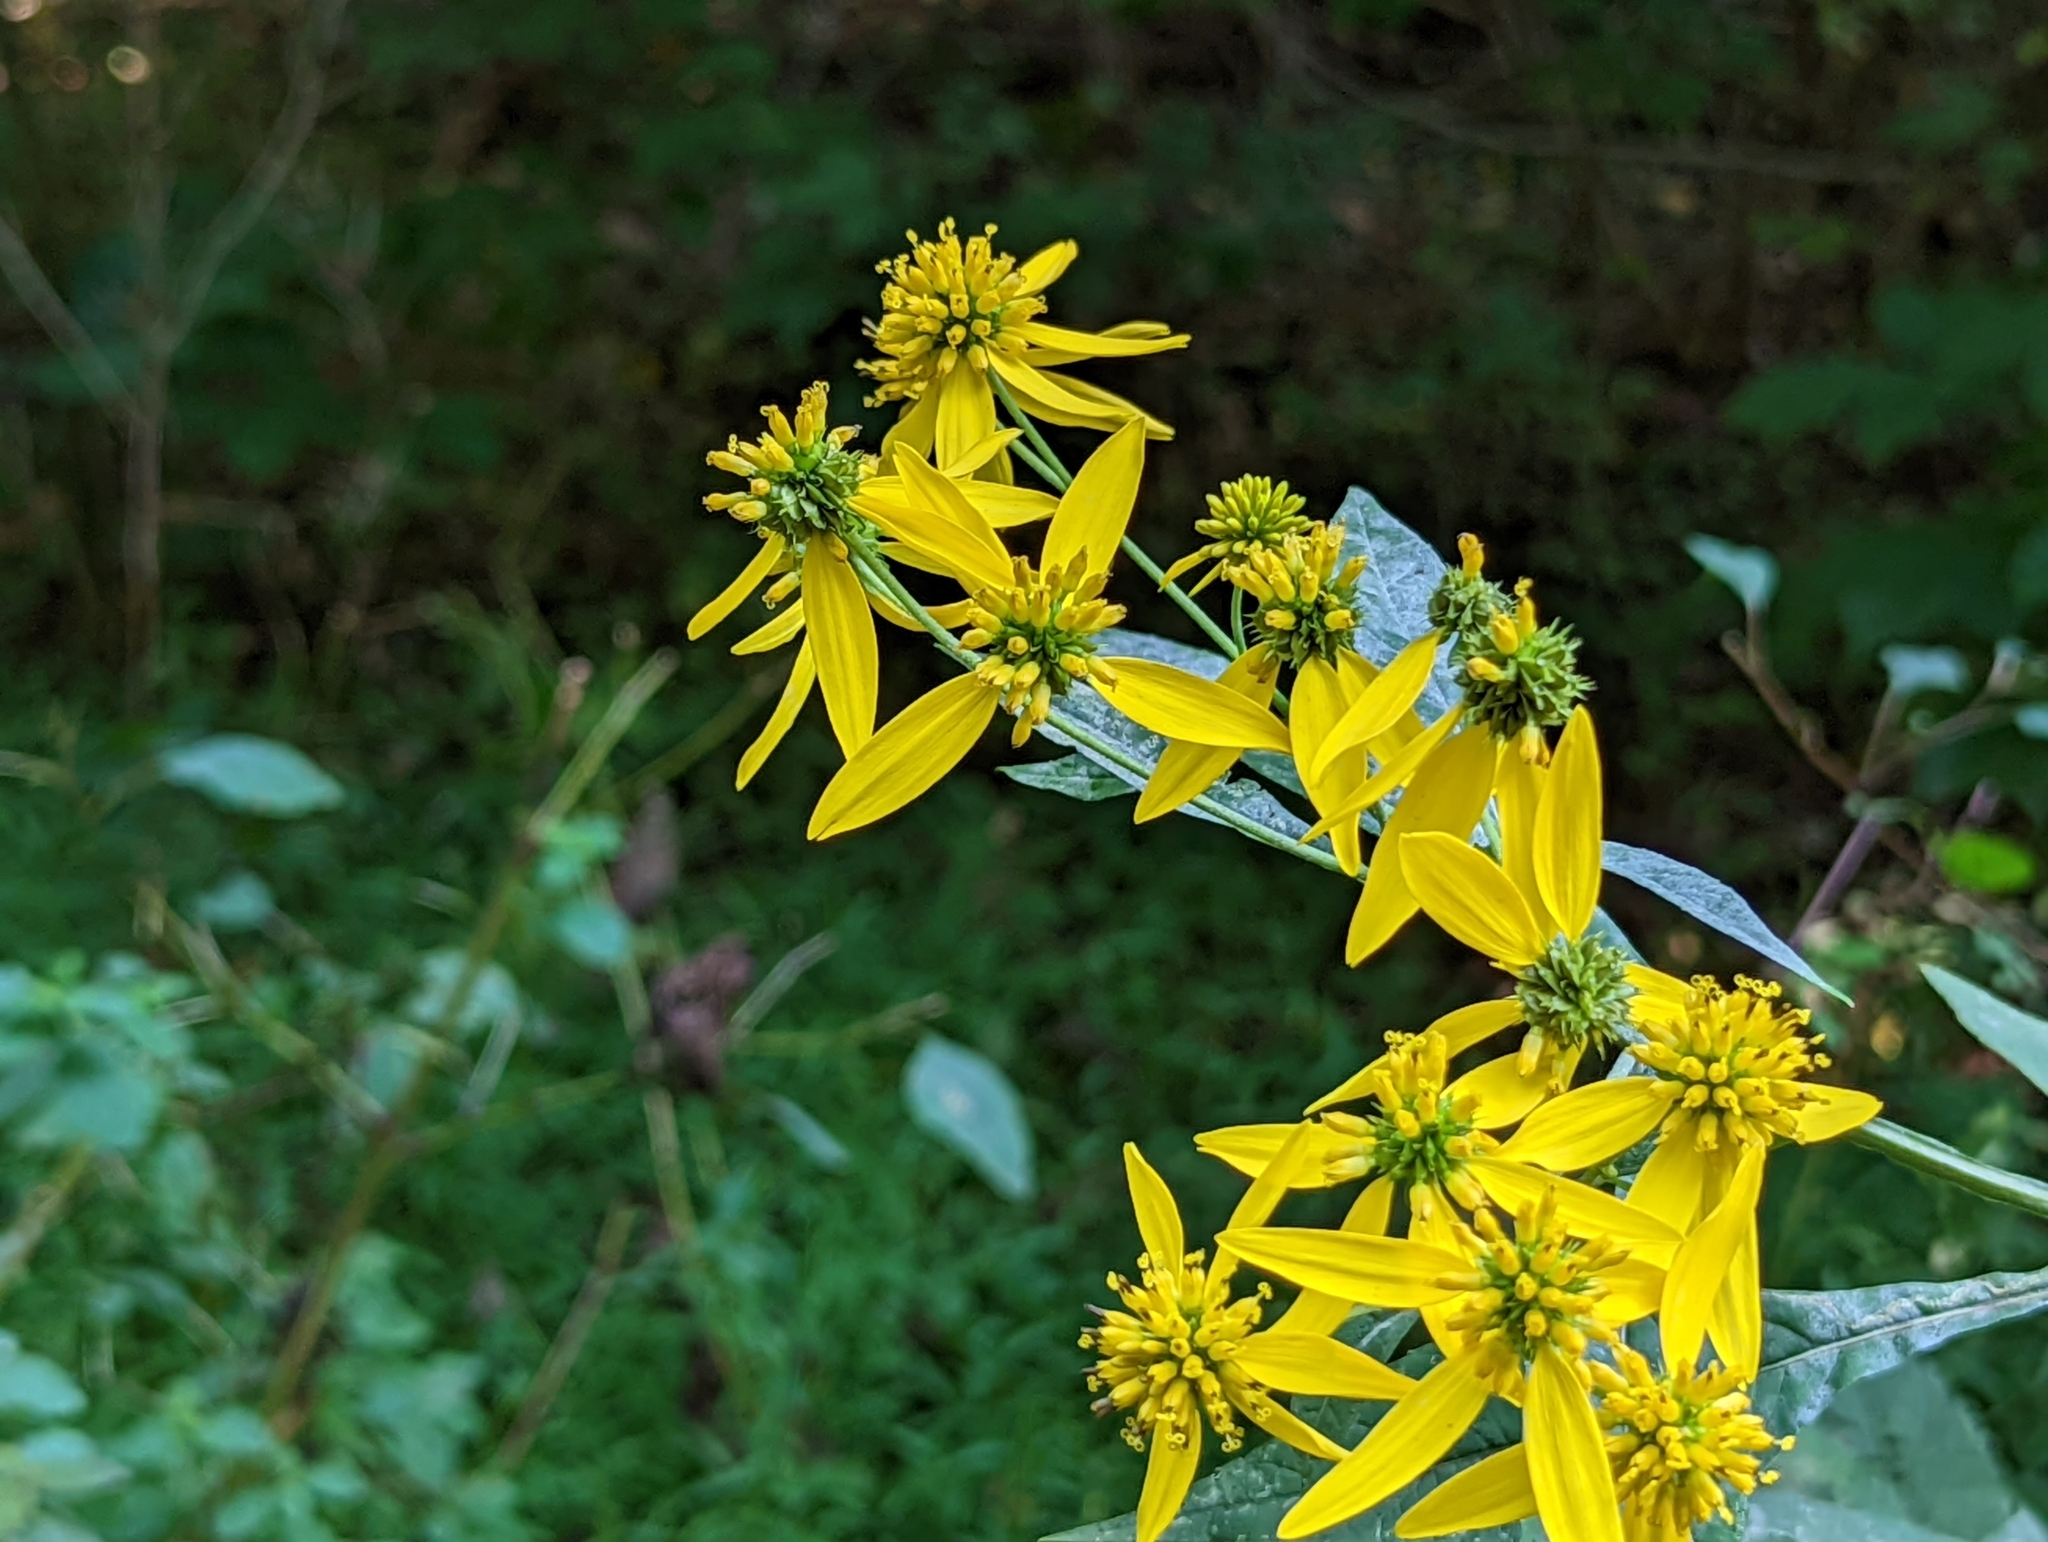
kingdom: Plantae
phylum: Tracheophyta
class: Magnoliopsida
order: Asterales
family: Asteraceae
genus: Verbesina
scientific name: Verbesina alternifolia
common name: Wingstem
